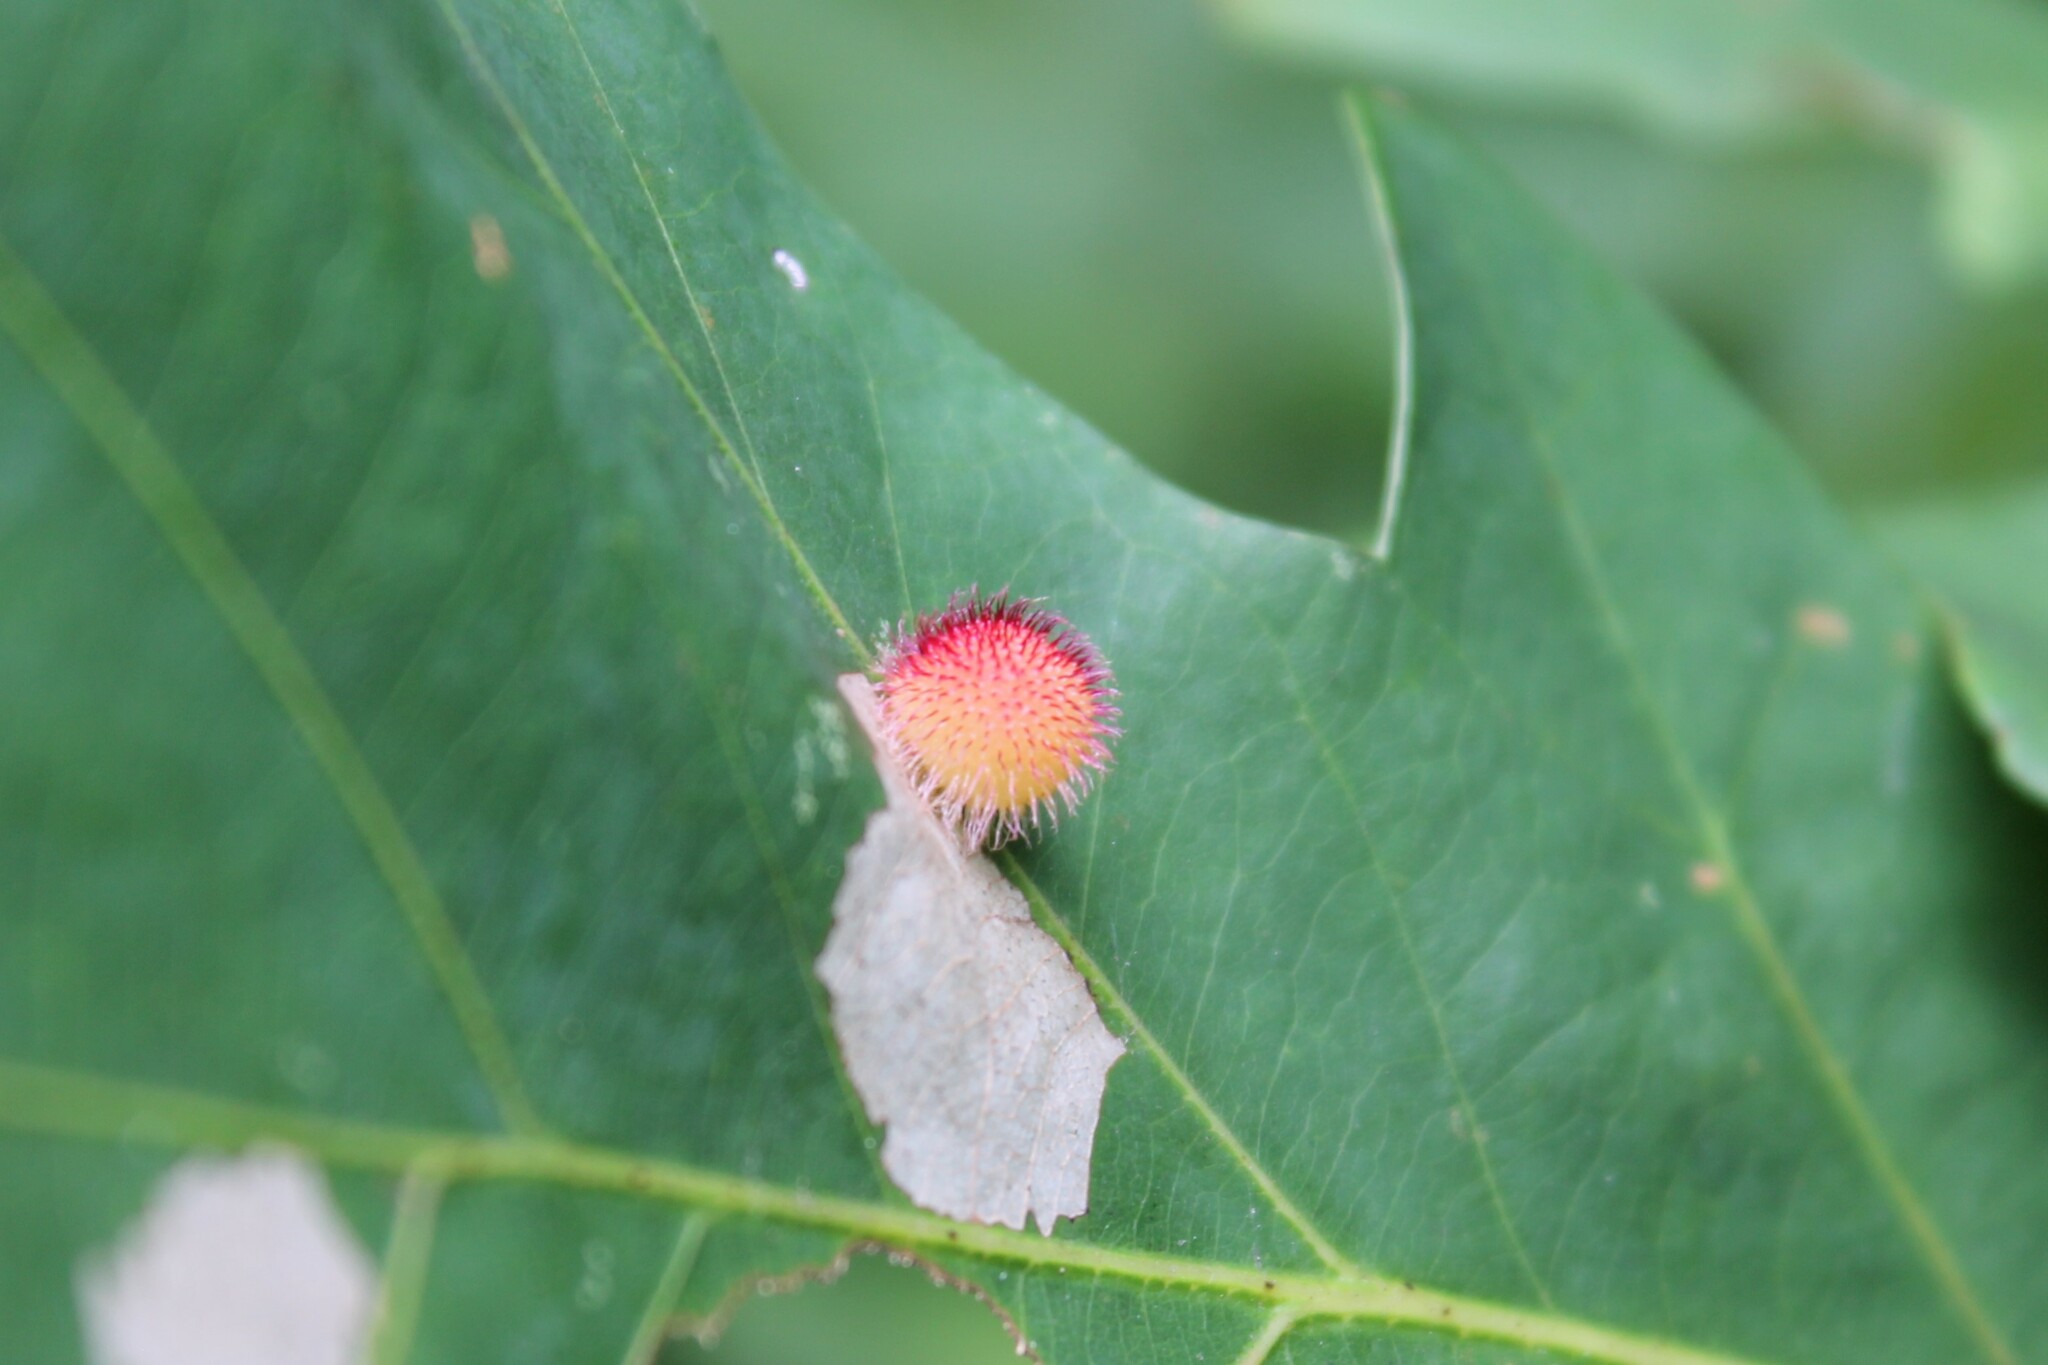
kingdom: Animalia
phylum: Arthropoda
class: Insecta
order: Hymenoptera
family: Cynipidae
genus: Acraspis
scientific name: Acraspis erinacei
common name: Hedgehog gall wasp
